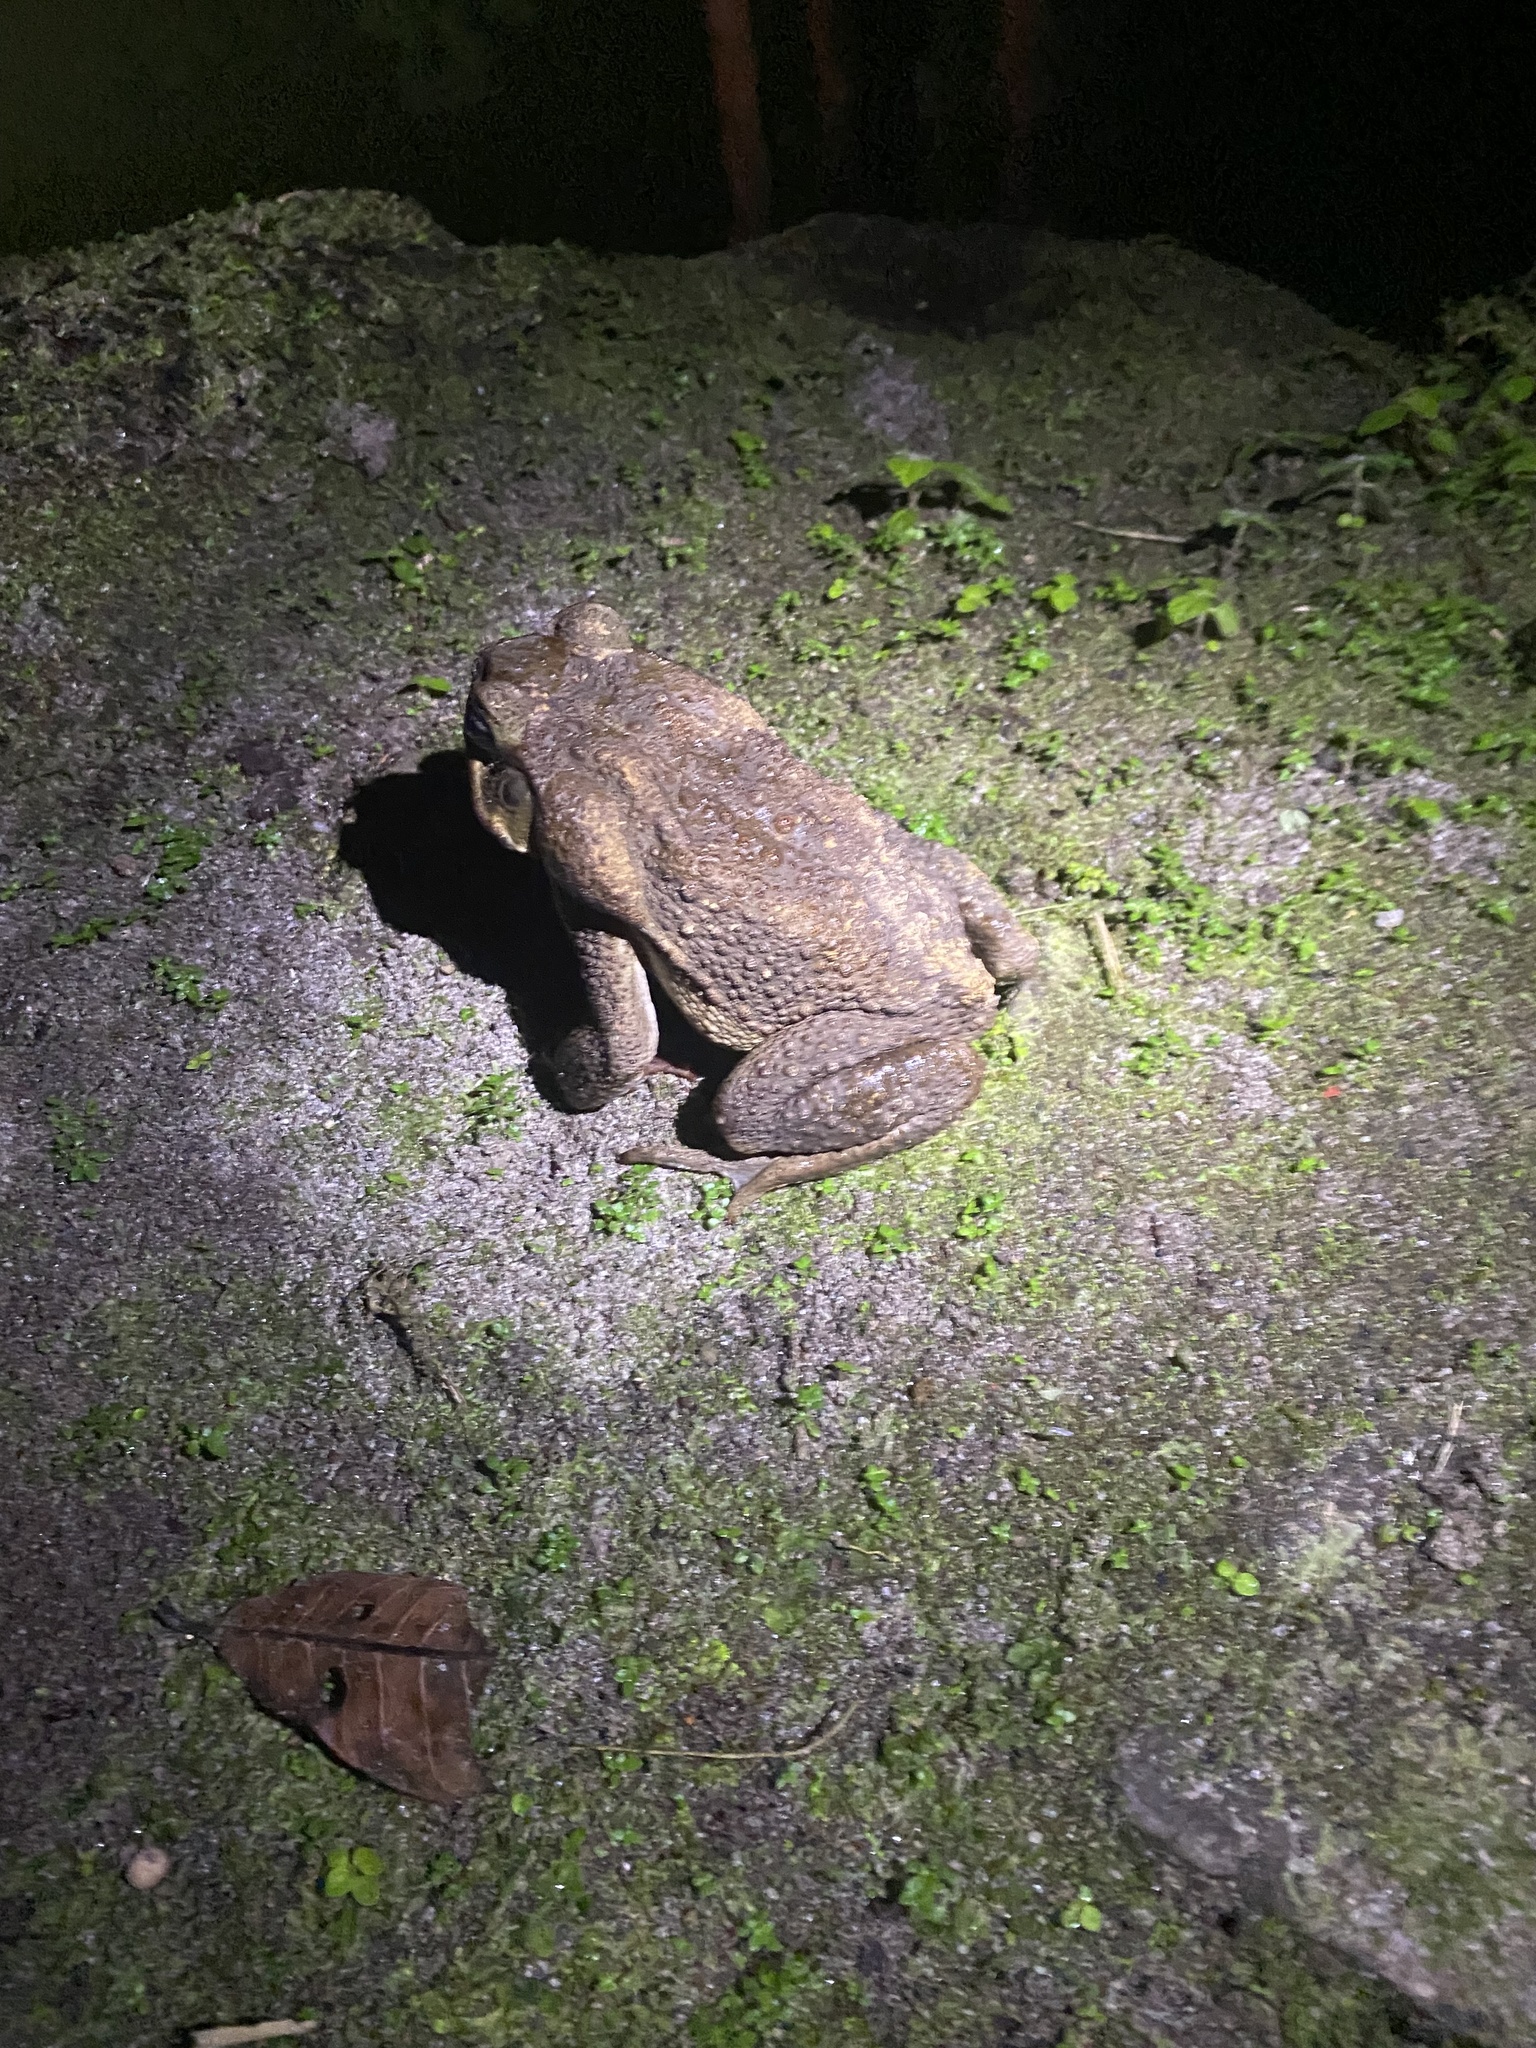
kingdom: Animalia
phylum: Chordata
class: Amphibia
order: Anura
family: Bufonidae
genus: Rhinella
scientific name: Rhinella horribilis
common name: Mesoamerican cane toad
